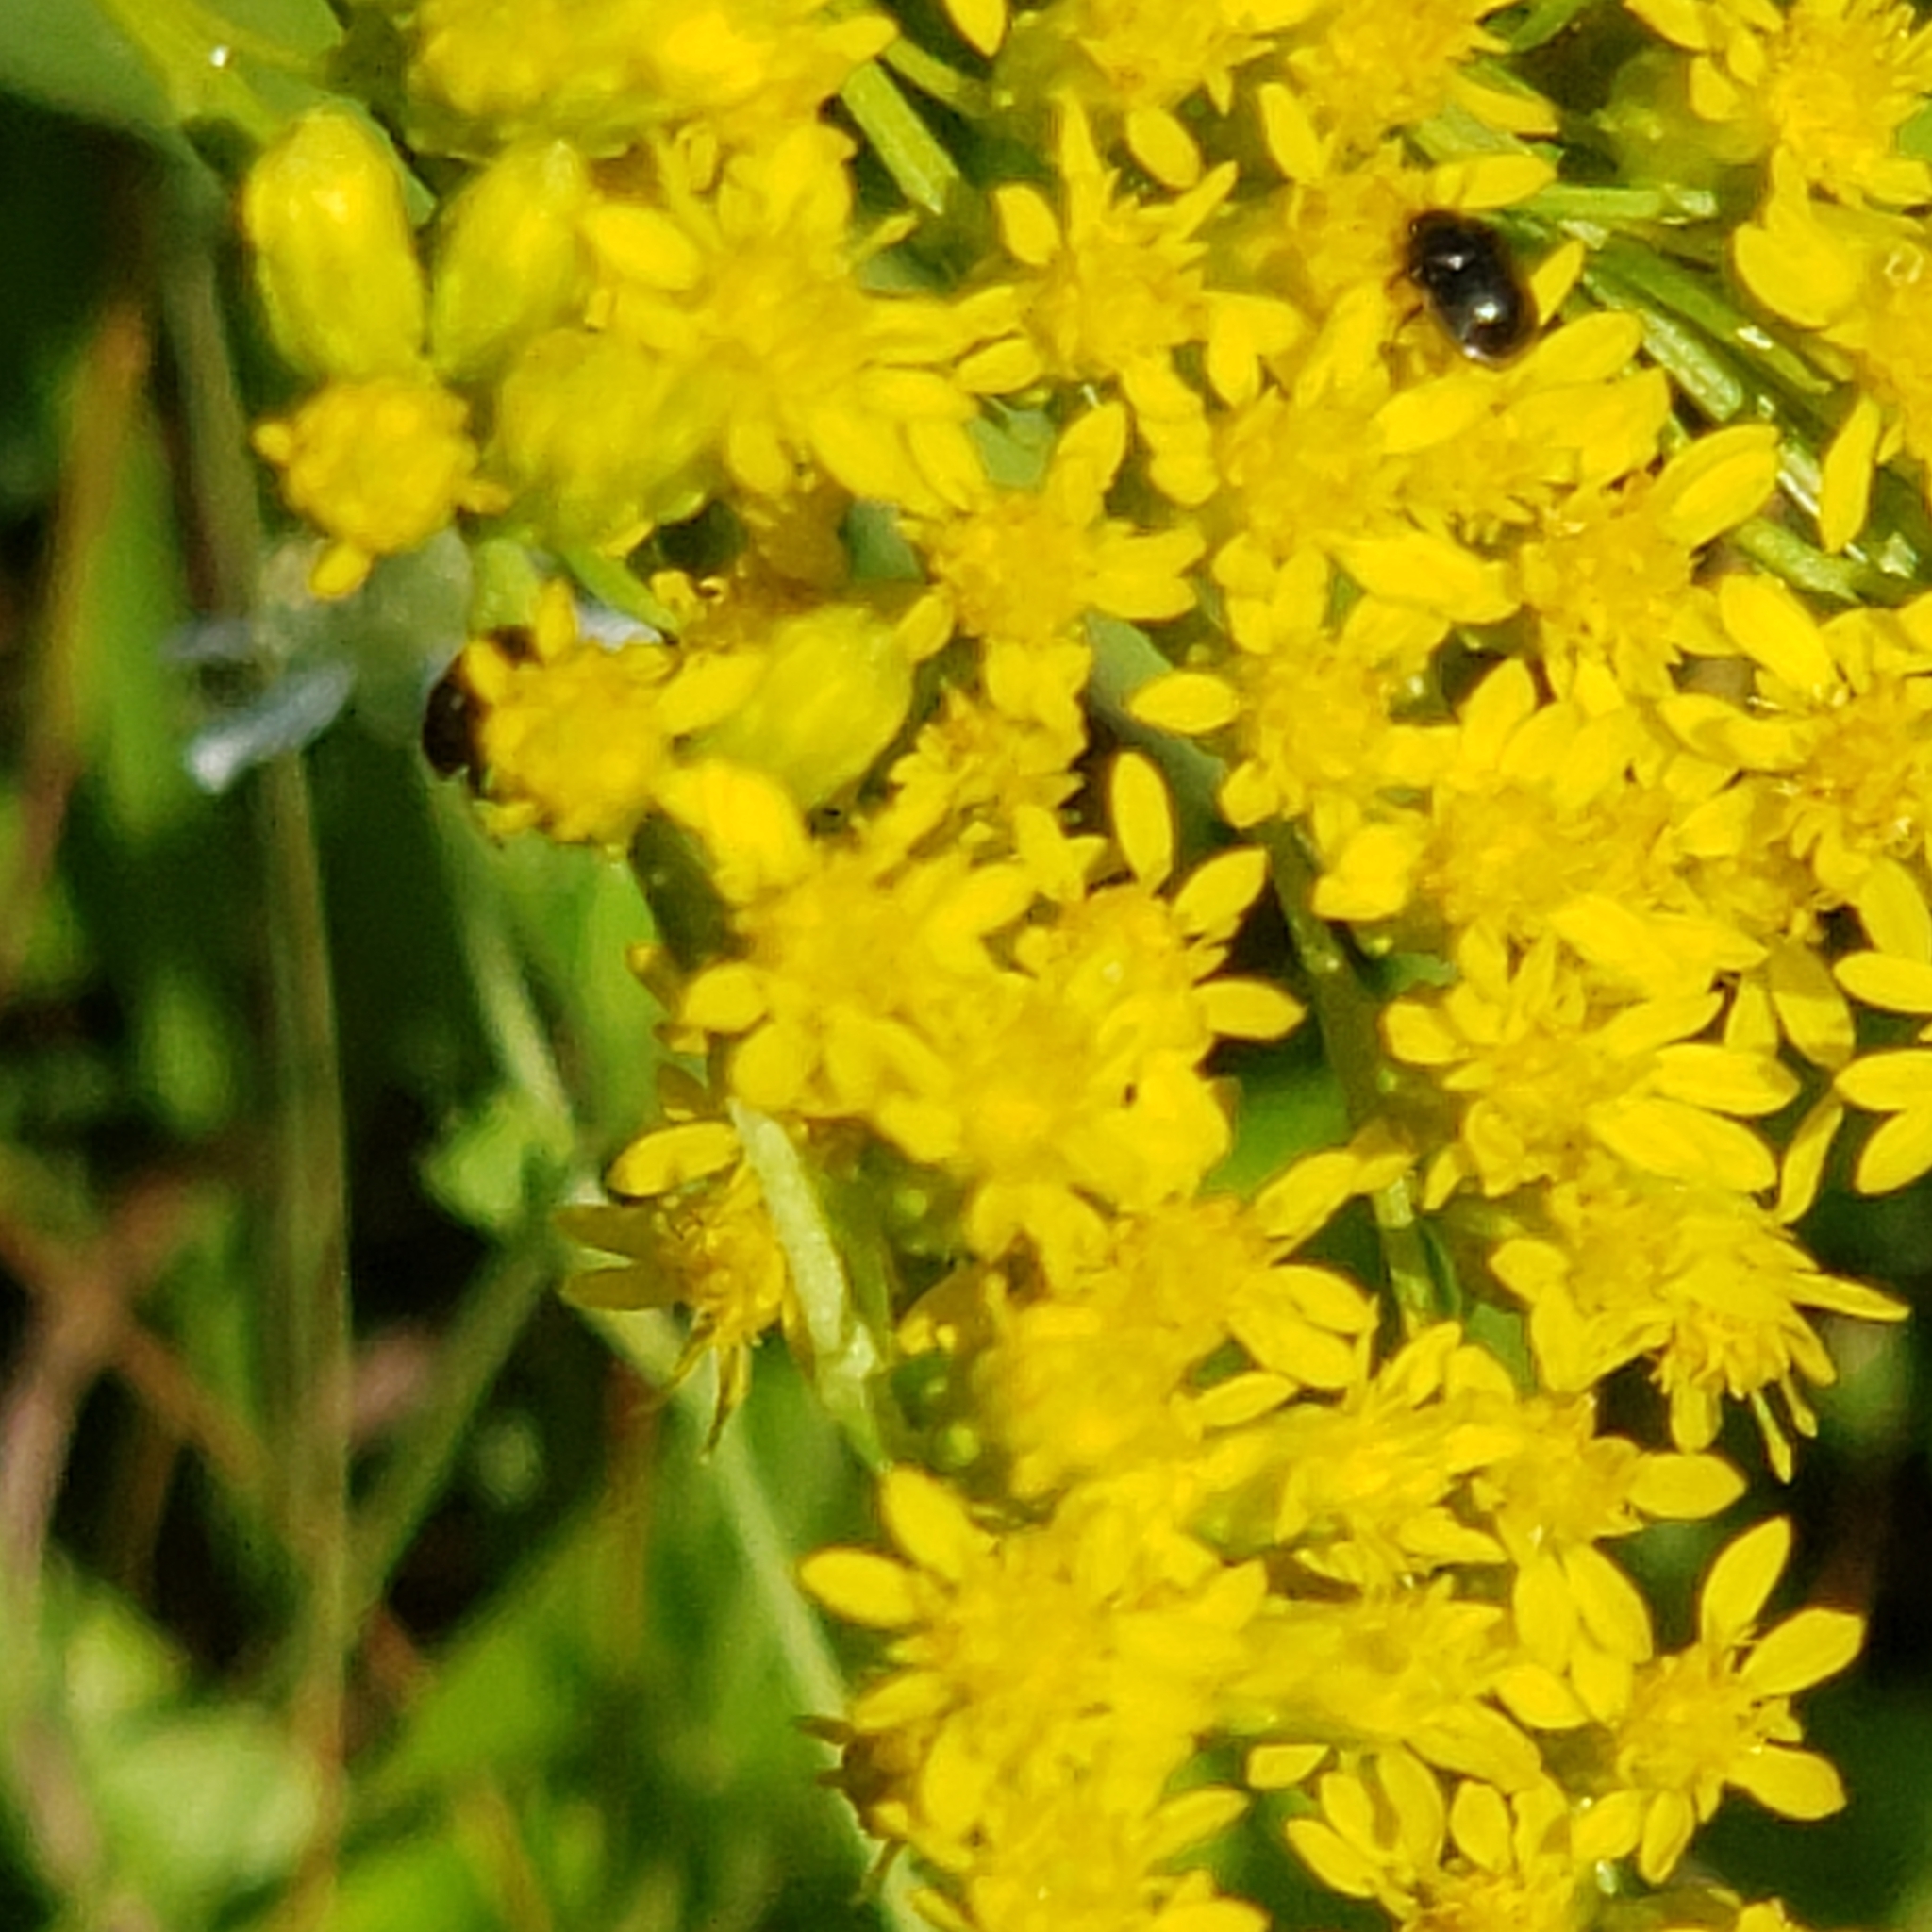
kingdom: Plantae
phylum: Tracheophyta
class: Magnoliopsida
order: Asterales
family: Asteraceae
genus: Euthamia
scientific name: Euthamia graminifolia
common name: Common goldentop
